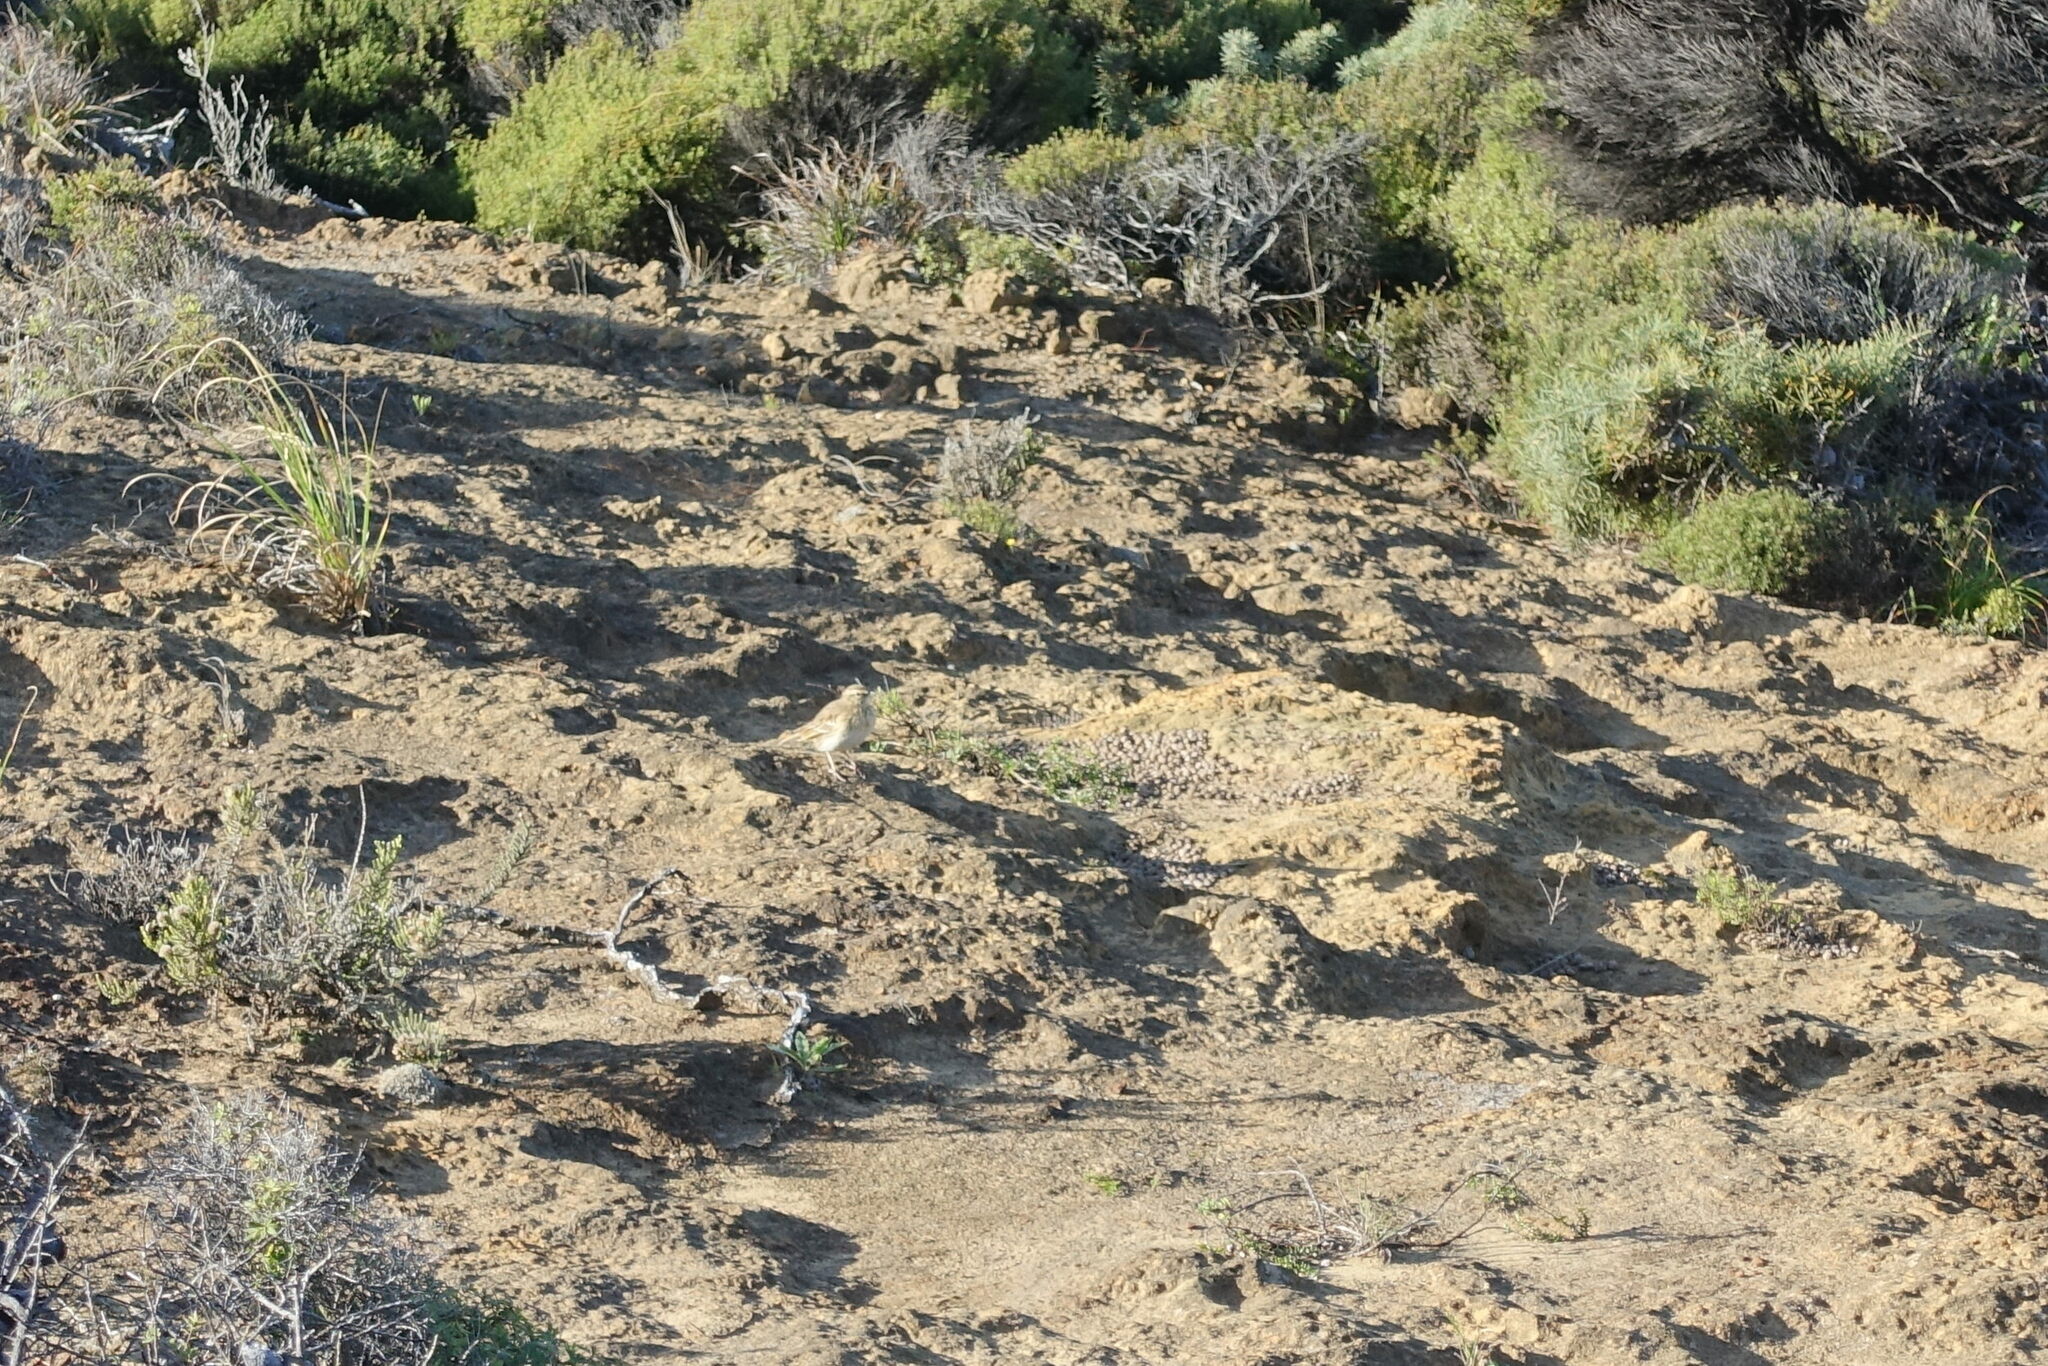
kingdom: Animalia
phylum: Chordata
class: Aves
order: Passeriformes
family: Motacillidae
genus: Anthus
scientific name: Anthus novaeseelandiae
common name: New zealand pipit
